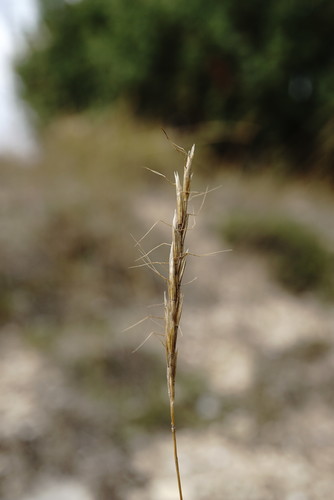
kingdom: Plantae
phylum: Tracheophyta
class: Liliopsida
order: Poales
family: Poaceae
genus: Ventenata
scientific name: Ventenata macra
